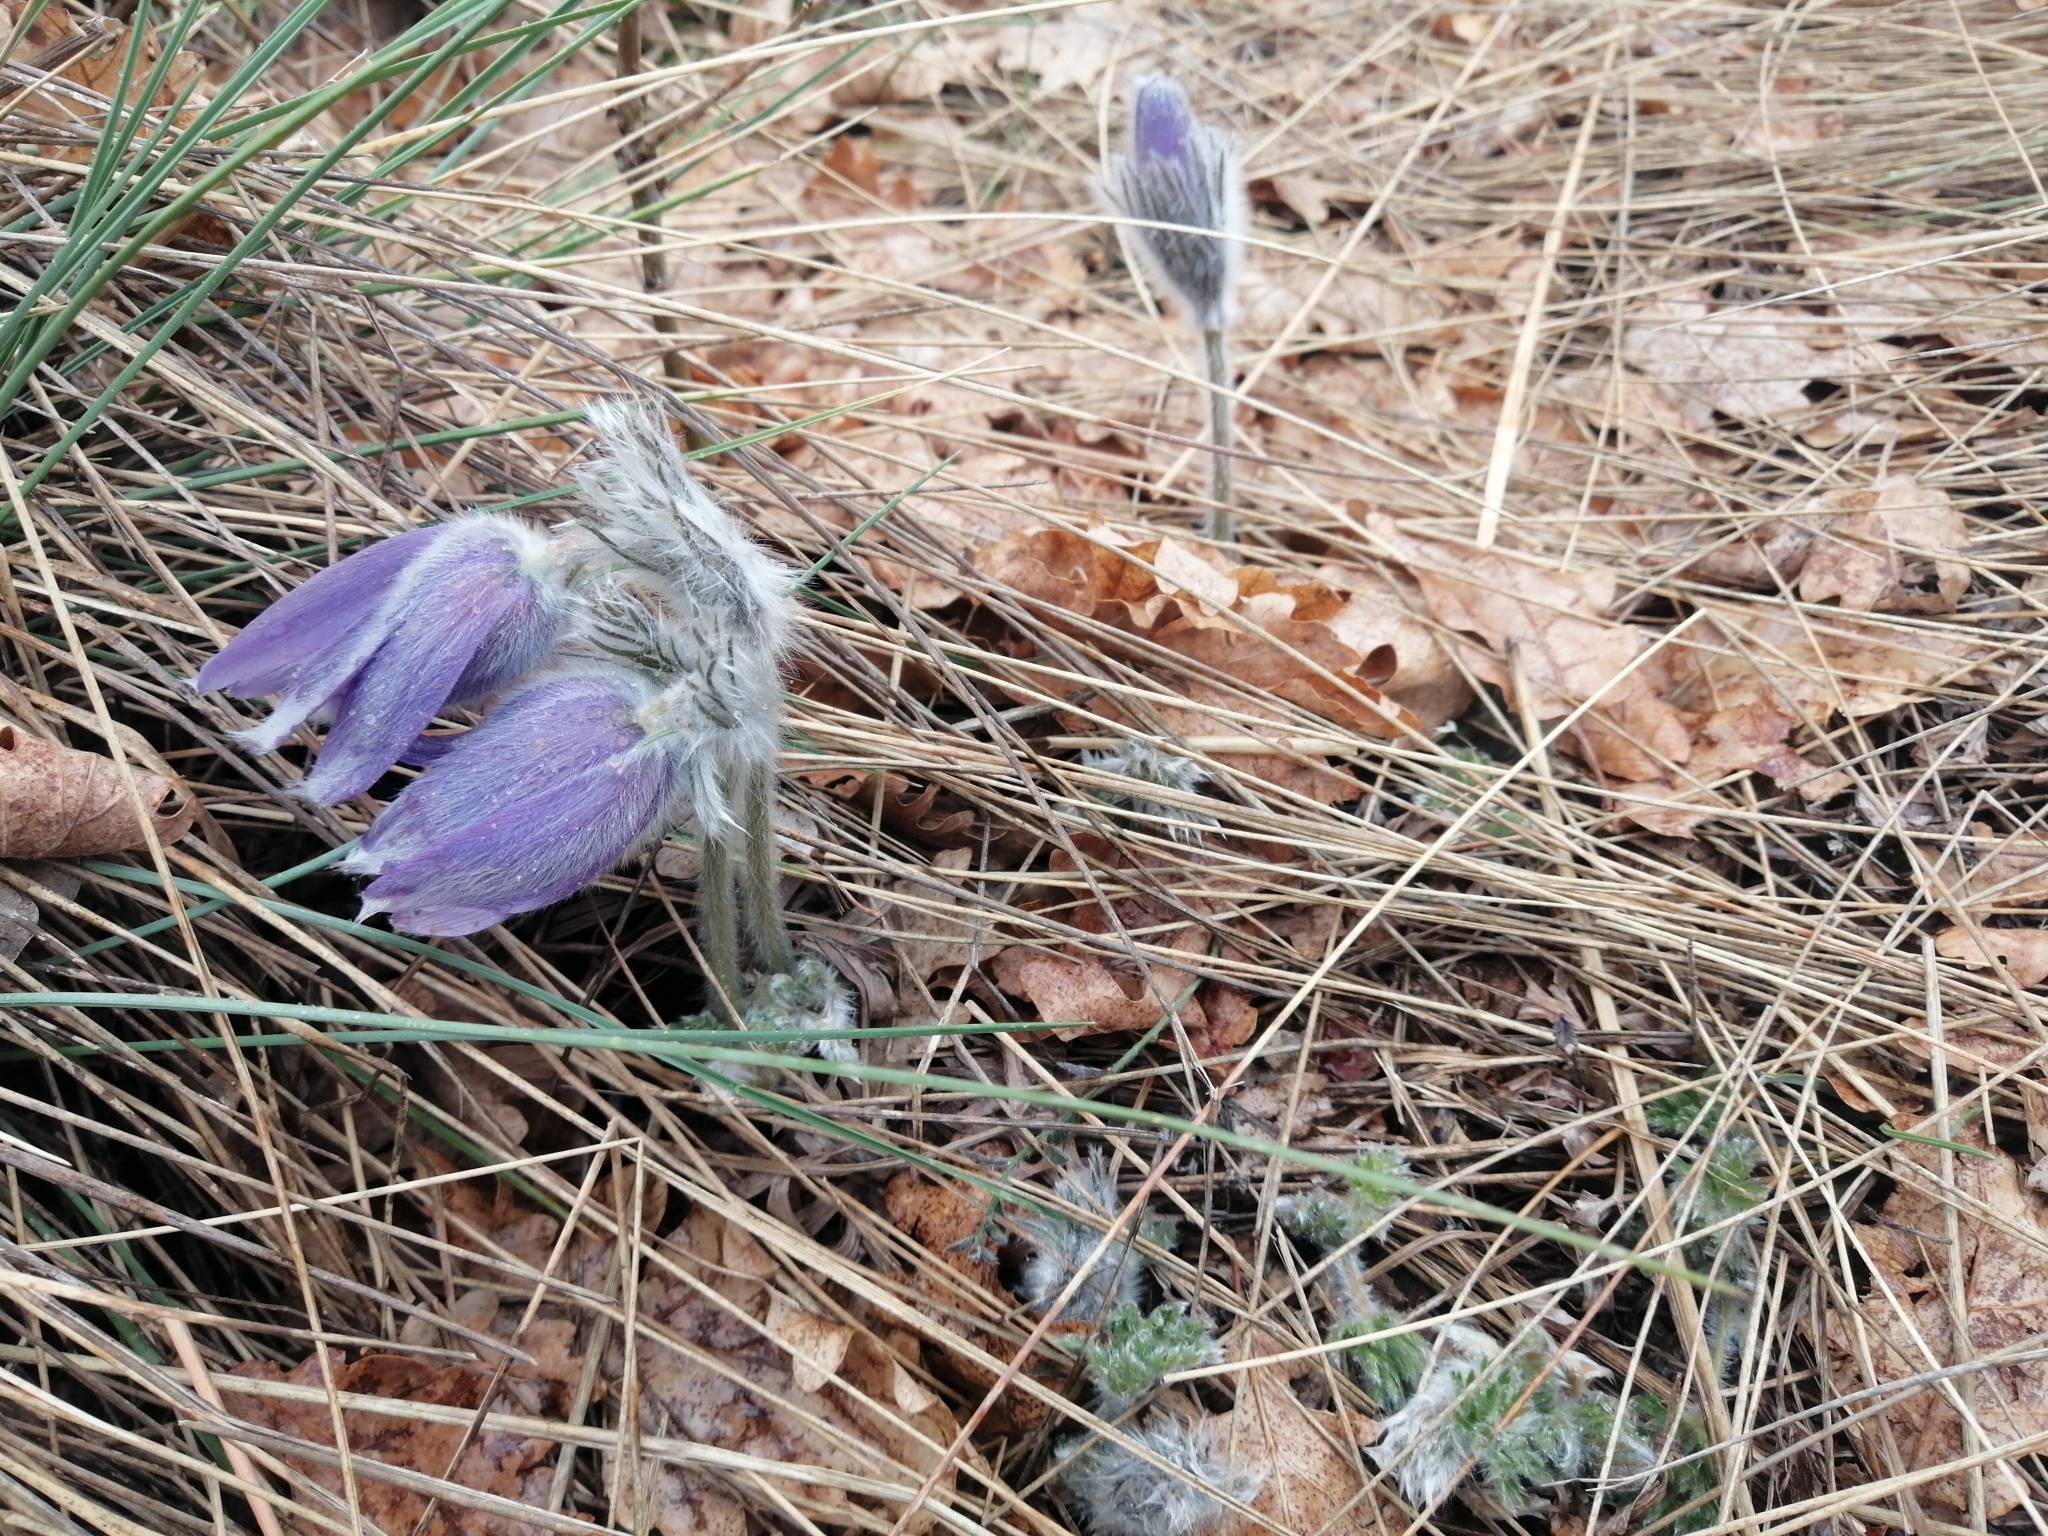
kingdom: Plantae
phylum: Tracheophyta
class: Magnoliopsida
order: Ranunculales
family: Ranunculaceae
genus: Pulsatilla
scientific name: Pulsatilla halleri
